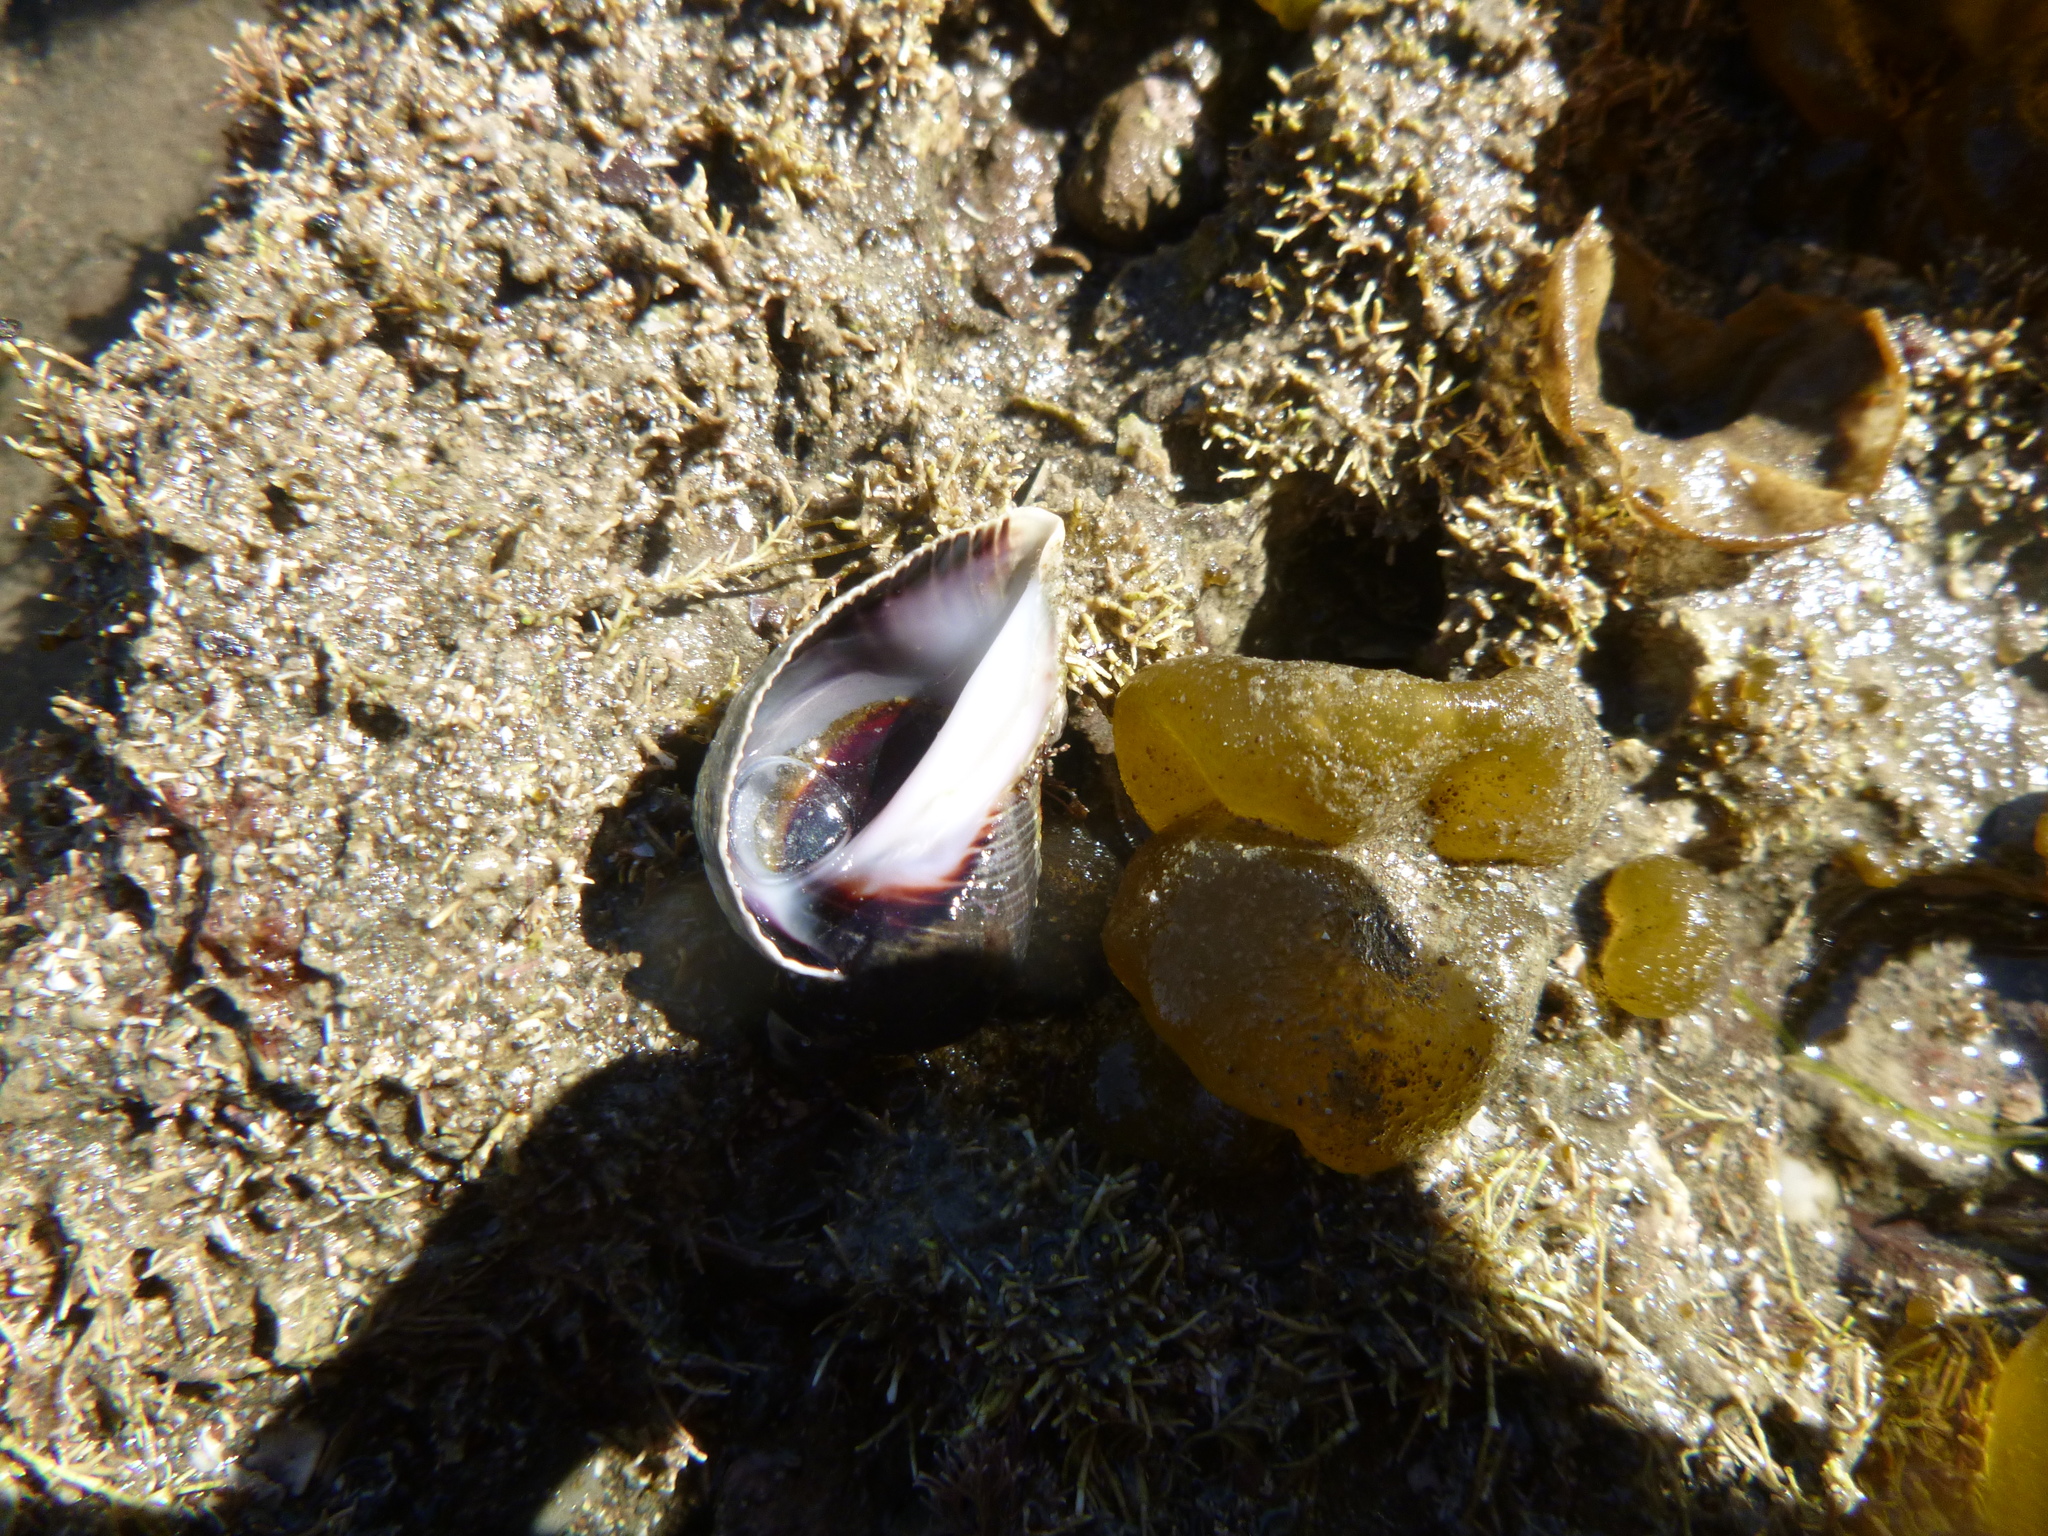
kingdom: Animalia
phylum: Mollusca
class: Gastropoda
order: Neogastropoda
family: Muricidae
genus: Haustrum
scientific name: Haustrum haustorium
